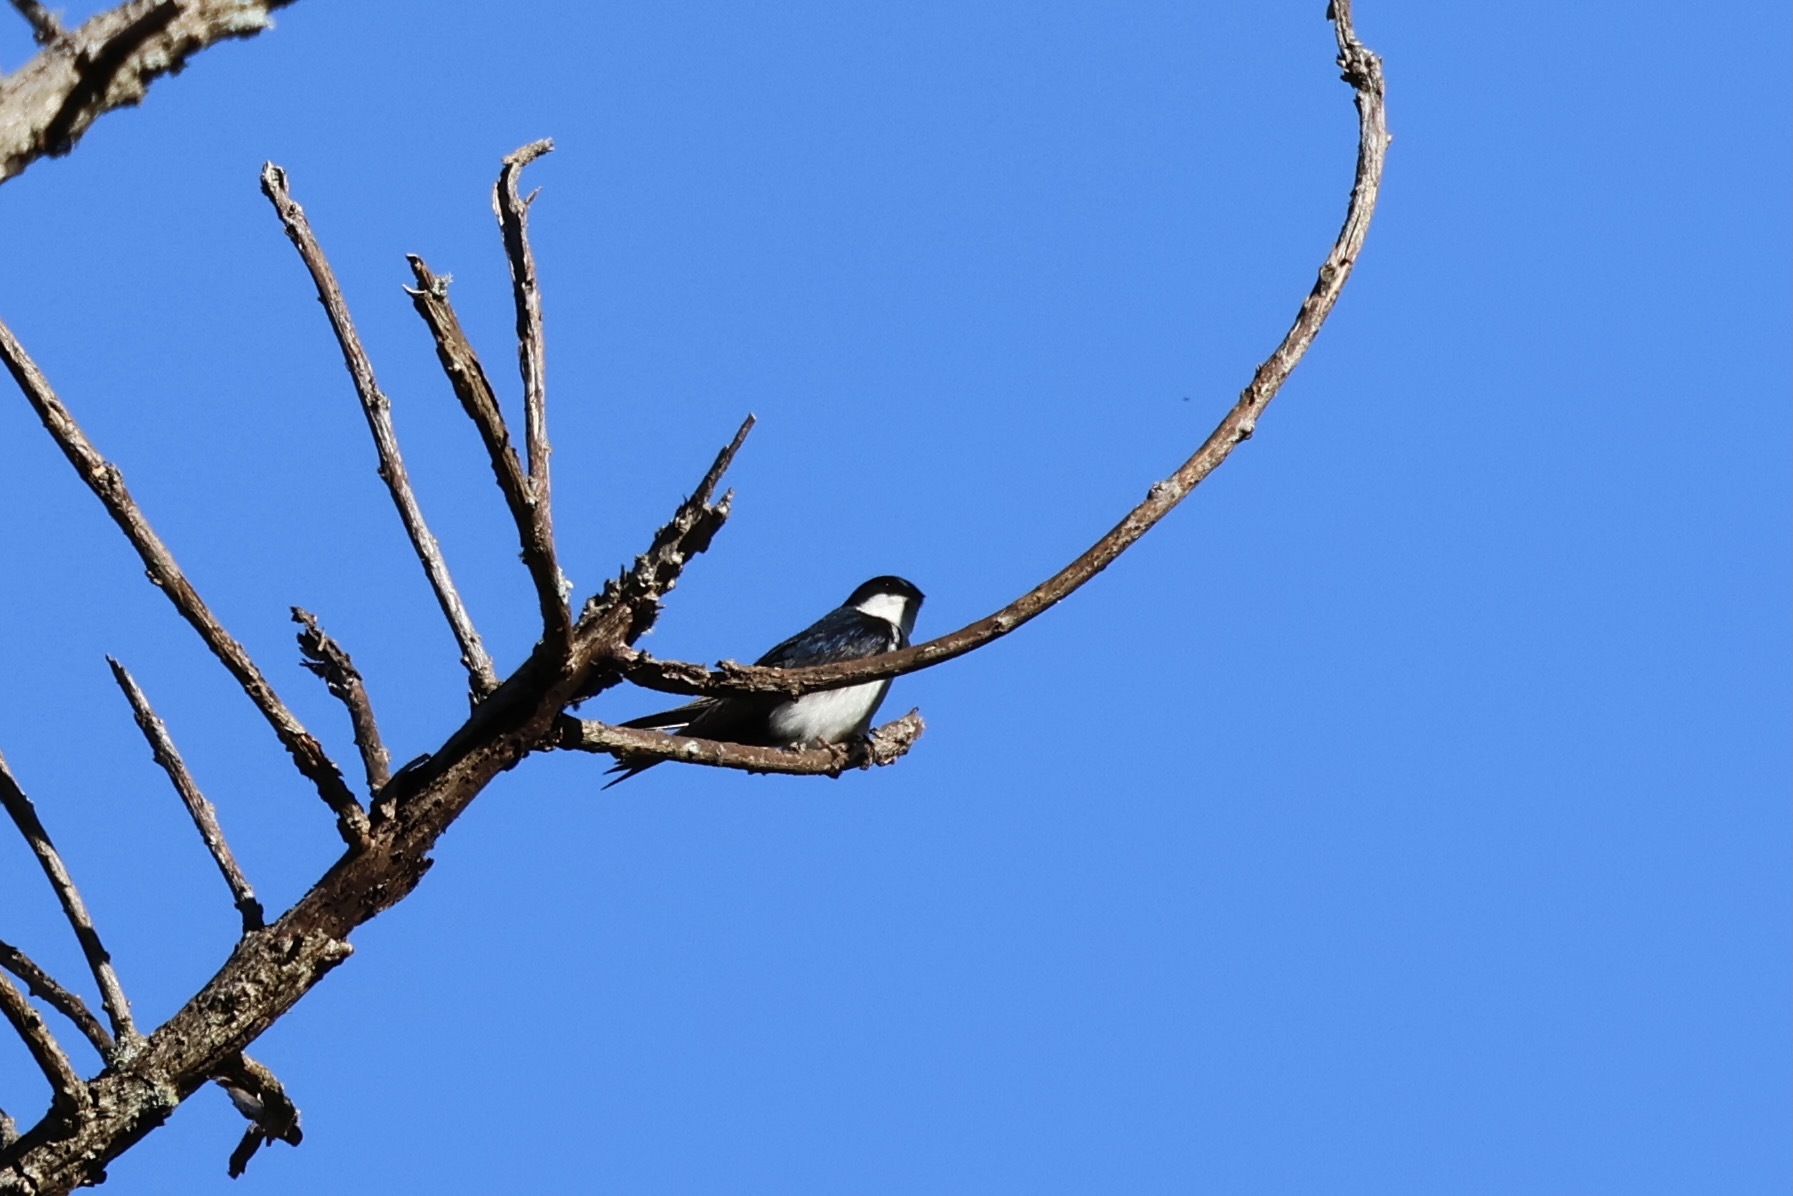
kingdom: Animalia
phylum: Chordata
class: Aves
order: Passeriformes
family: Hirundinidae
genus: Notiochelidon
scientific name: Notiochelidon cyanoleuca
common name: Blue-and-white swallow
